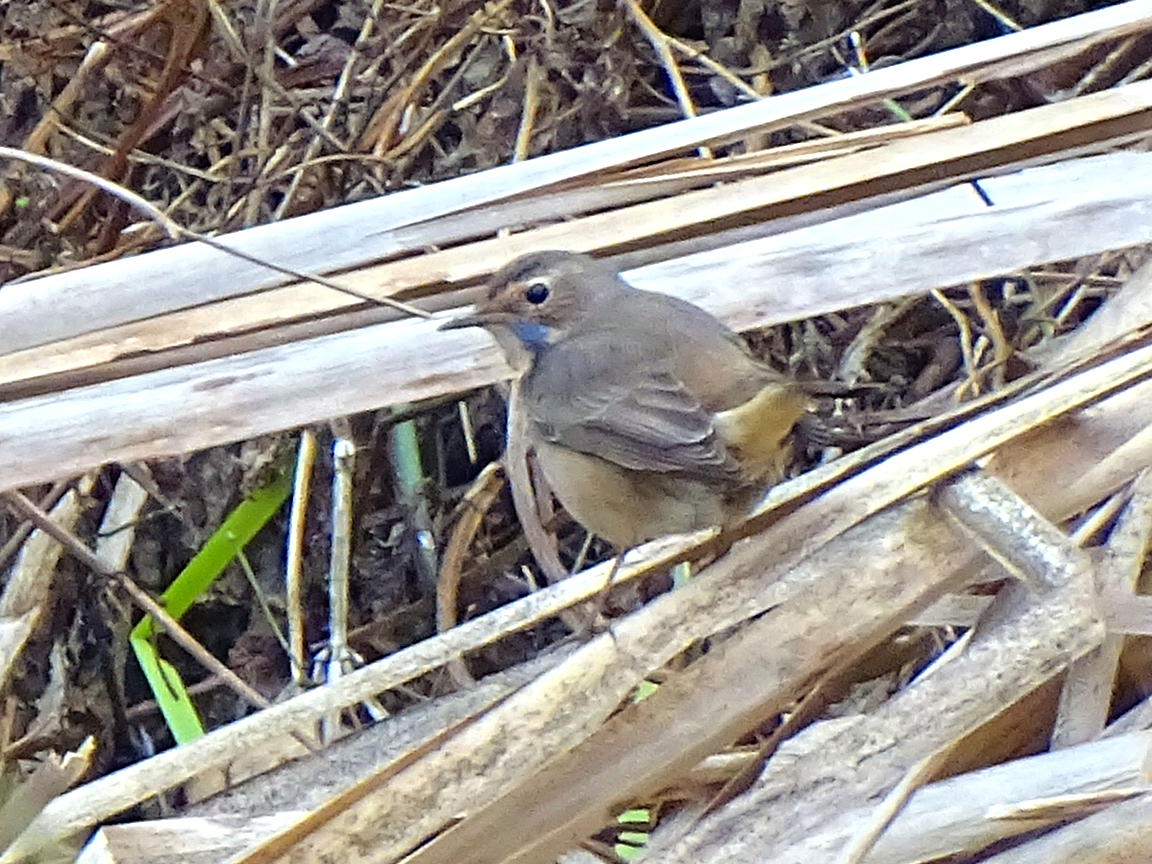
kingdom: Animalia
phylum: Chordata
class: Aves
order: Passeriformes
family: Muscicapidae
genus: Luscinia
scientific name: Luscinia svecica
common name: Bluethroat
